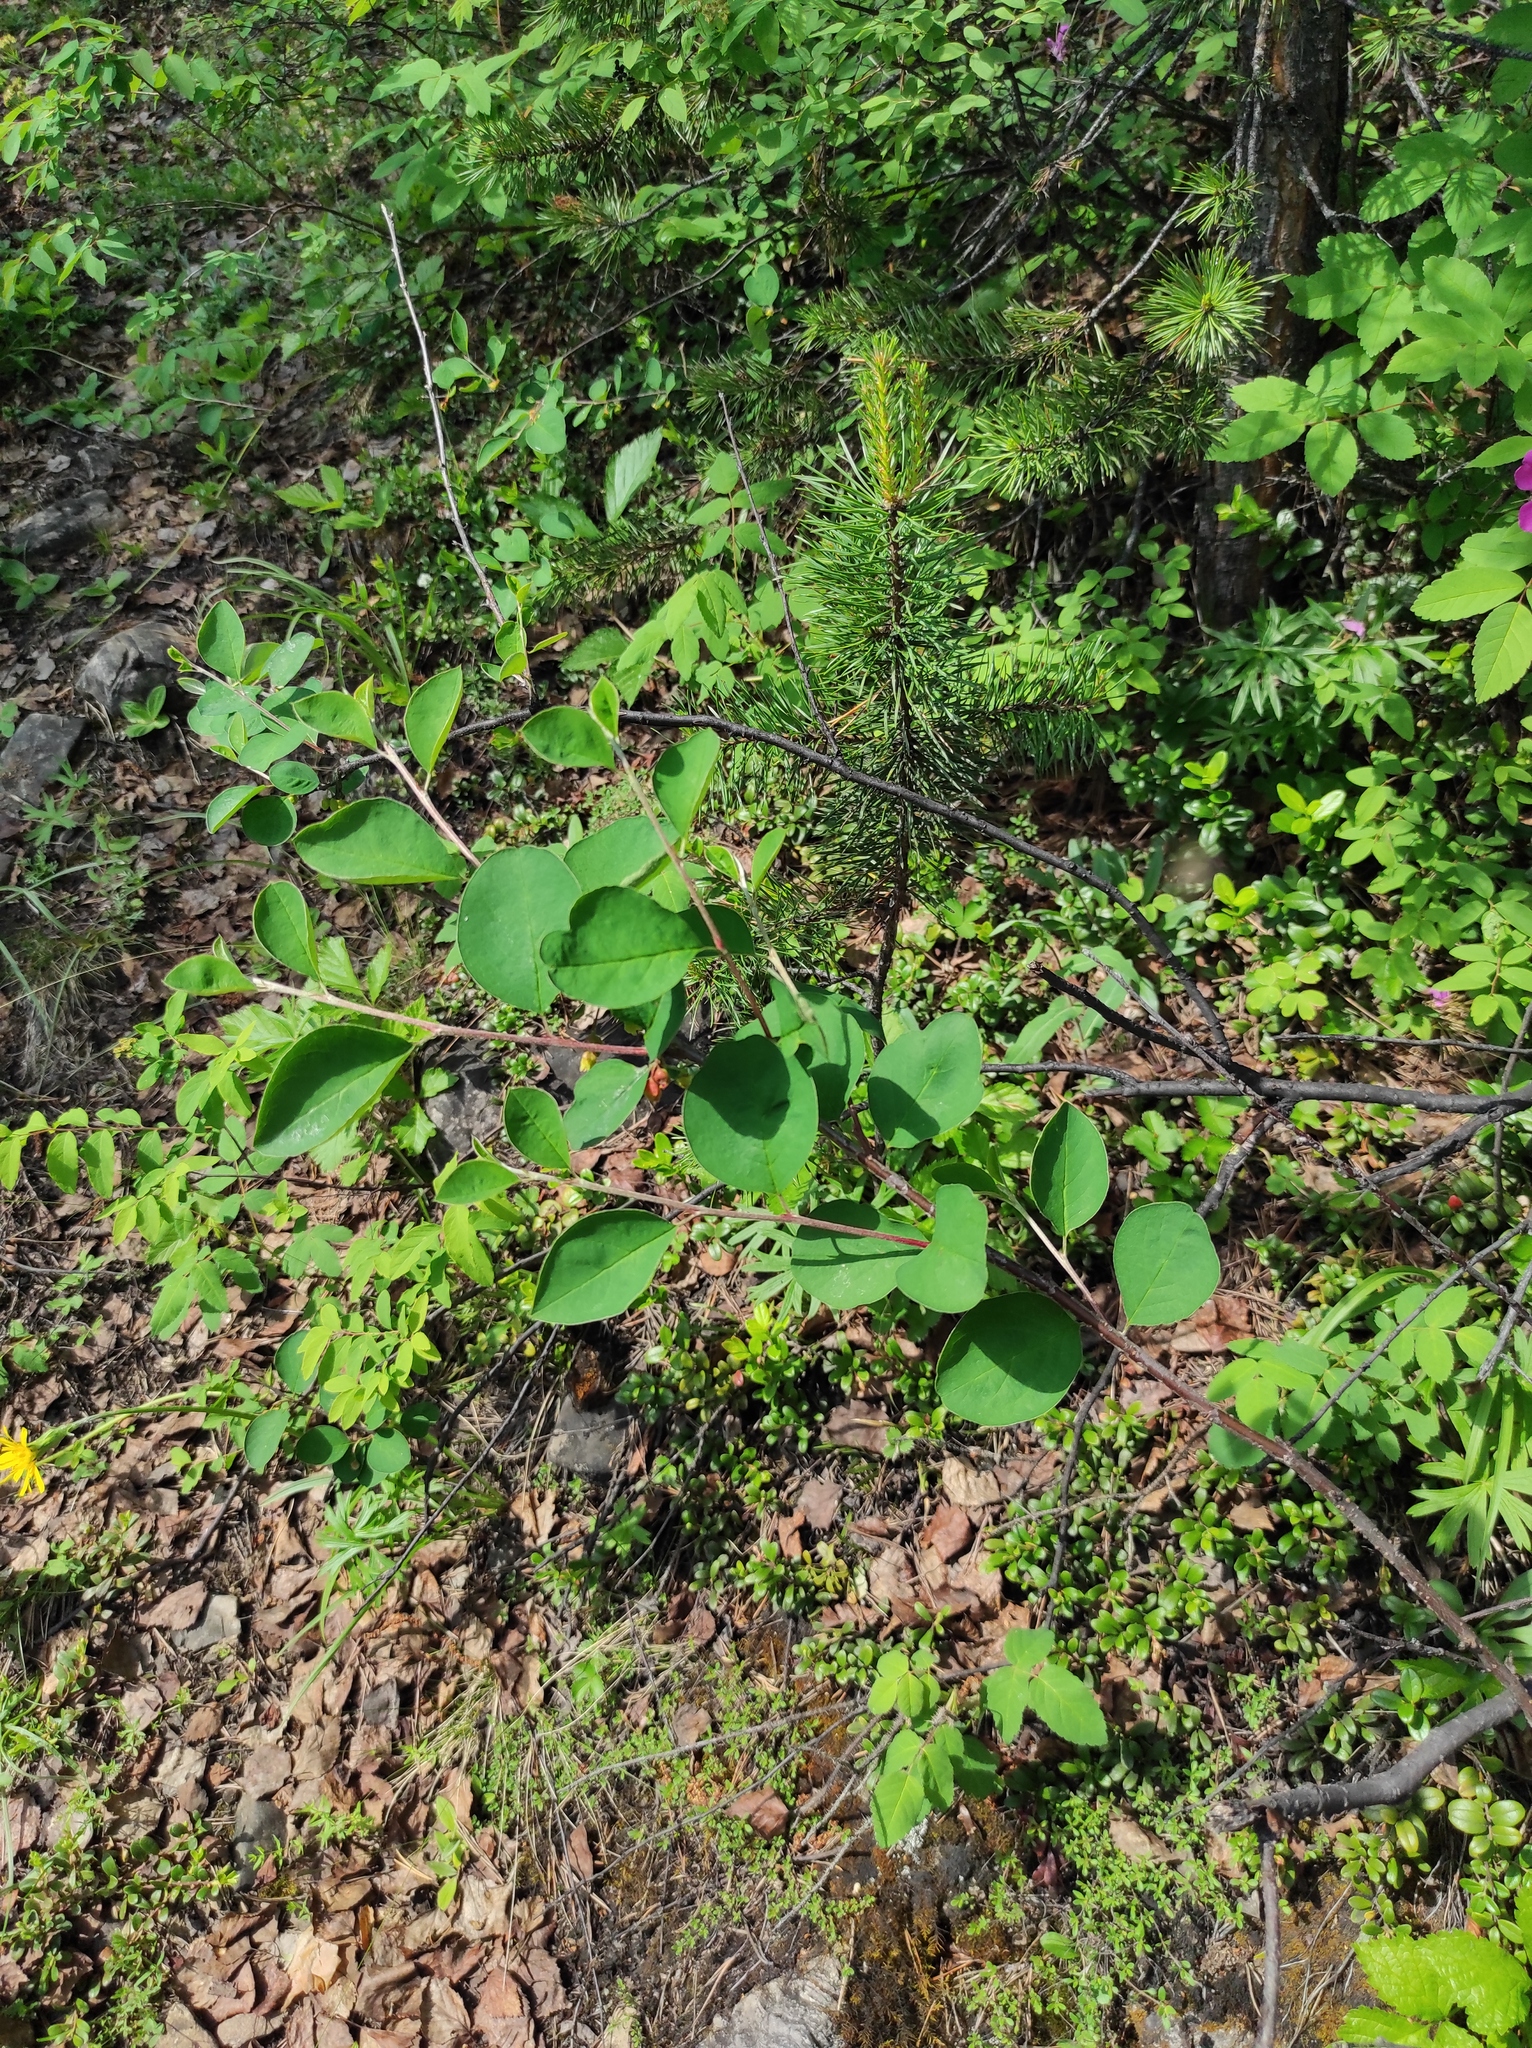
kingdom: Plantae
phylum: Tracheophyta
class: Pinopsida
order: Pinales
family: Pinaceae
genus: Pinus
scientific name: Pinus sylvestris
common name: Scots pine
